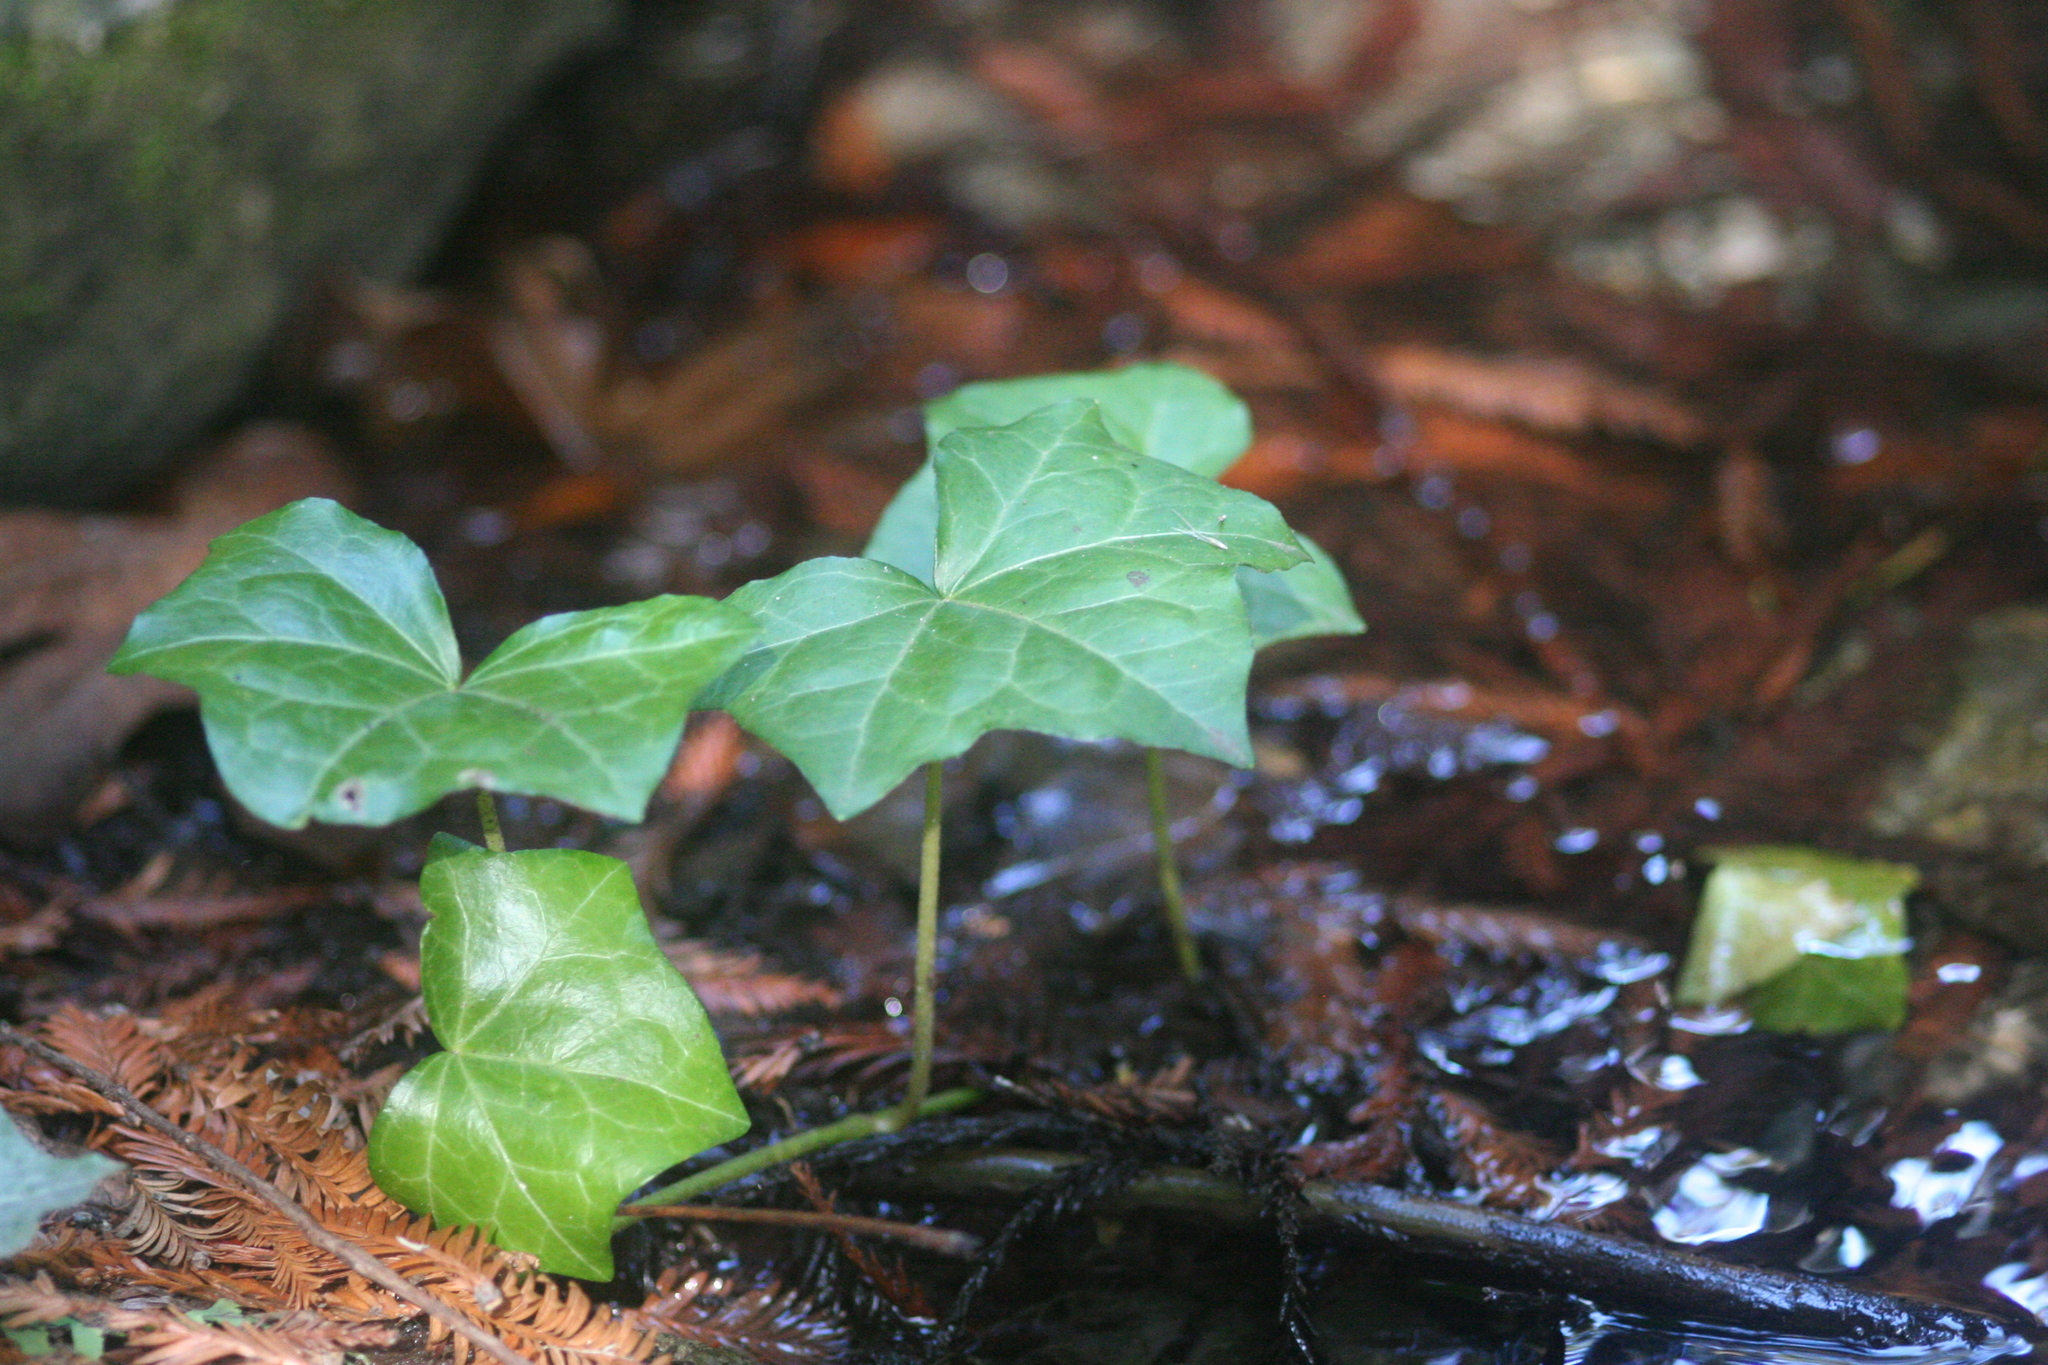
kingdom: Plantae
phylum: Tracheophyta
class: Magnoliopsida
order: Apiales
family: Araliaceae
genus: Hedera
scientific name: Hedera helix
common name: Ivy
